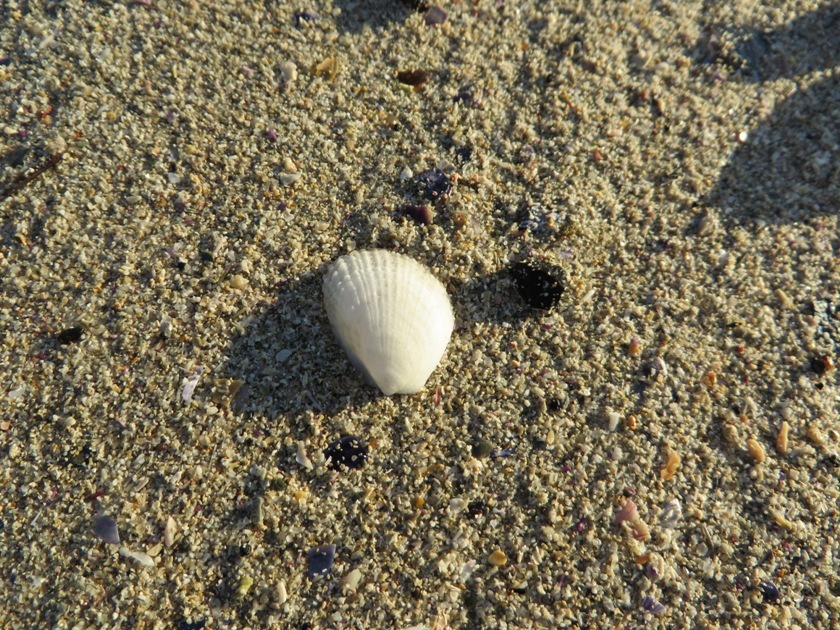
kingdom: Animalia
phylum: Mollusca
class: Bivalvia
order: Limida
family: Limidae
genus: Limaria
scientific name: Limaria tuberculata
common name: File shell
